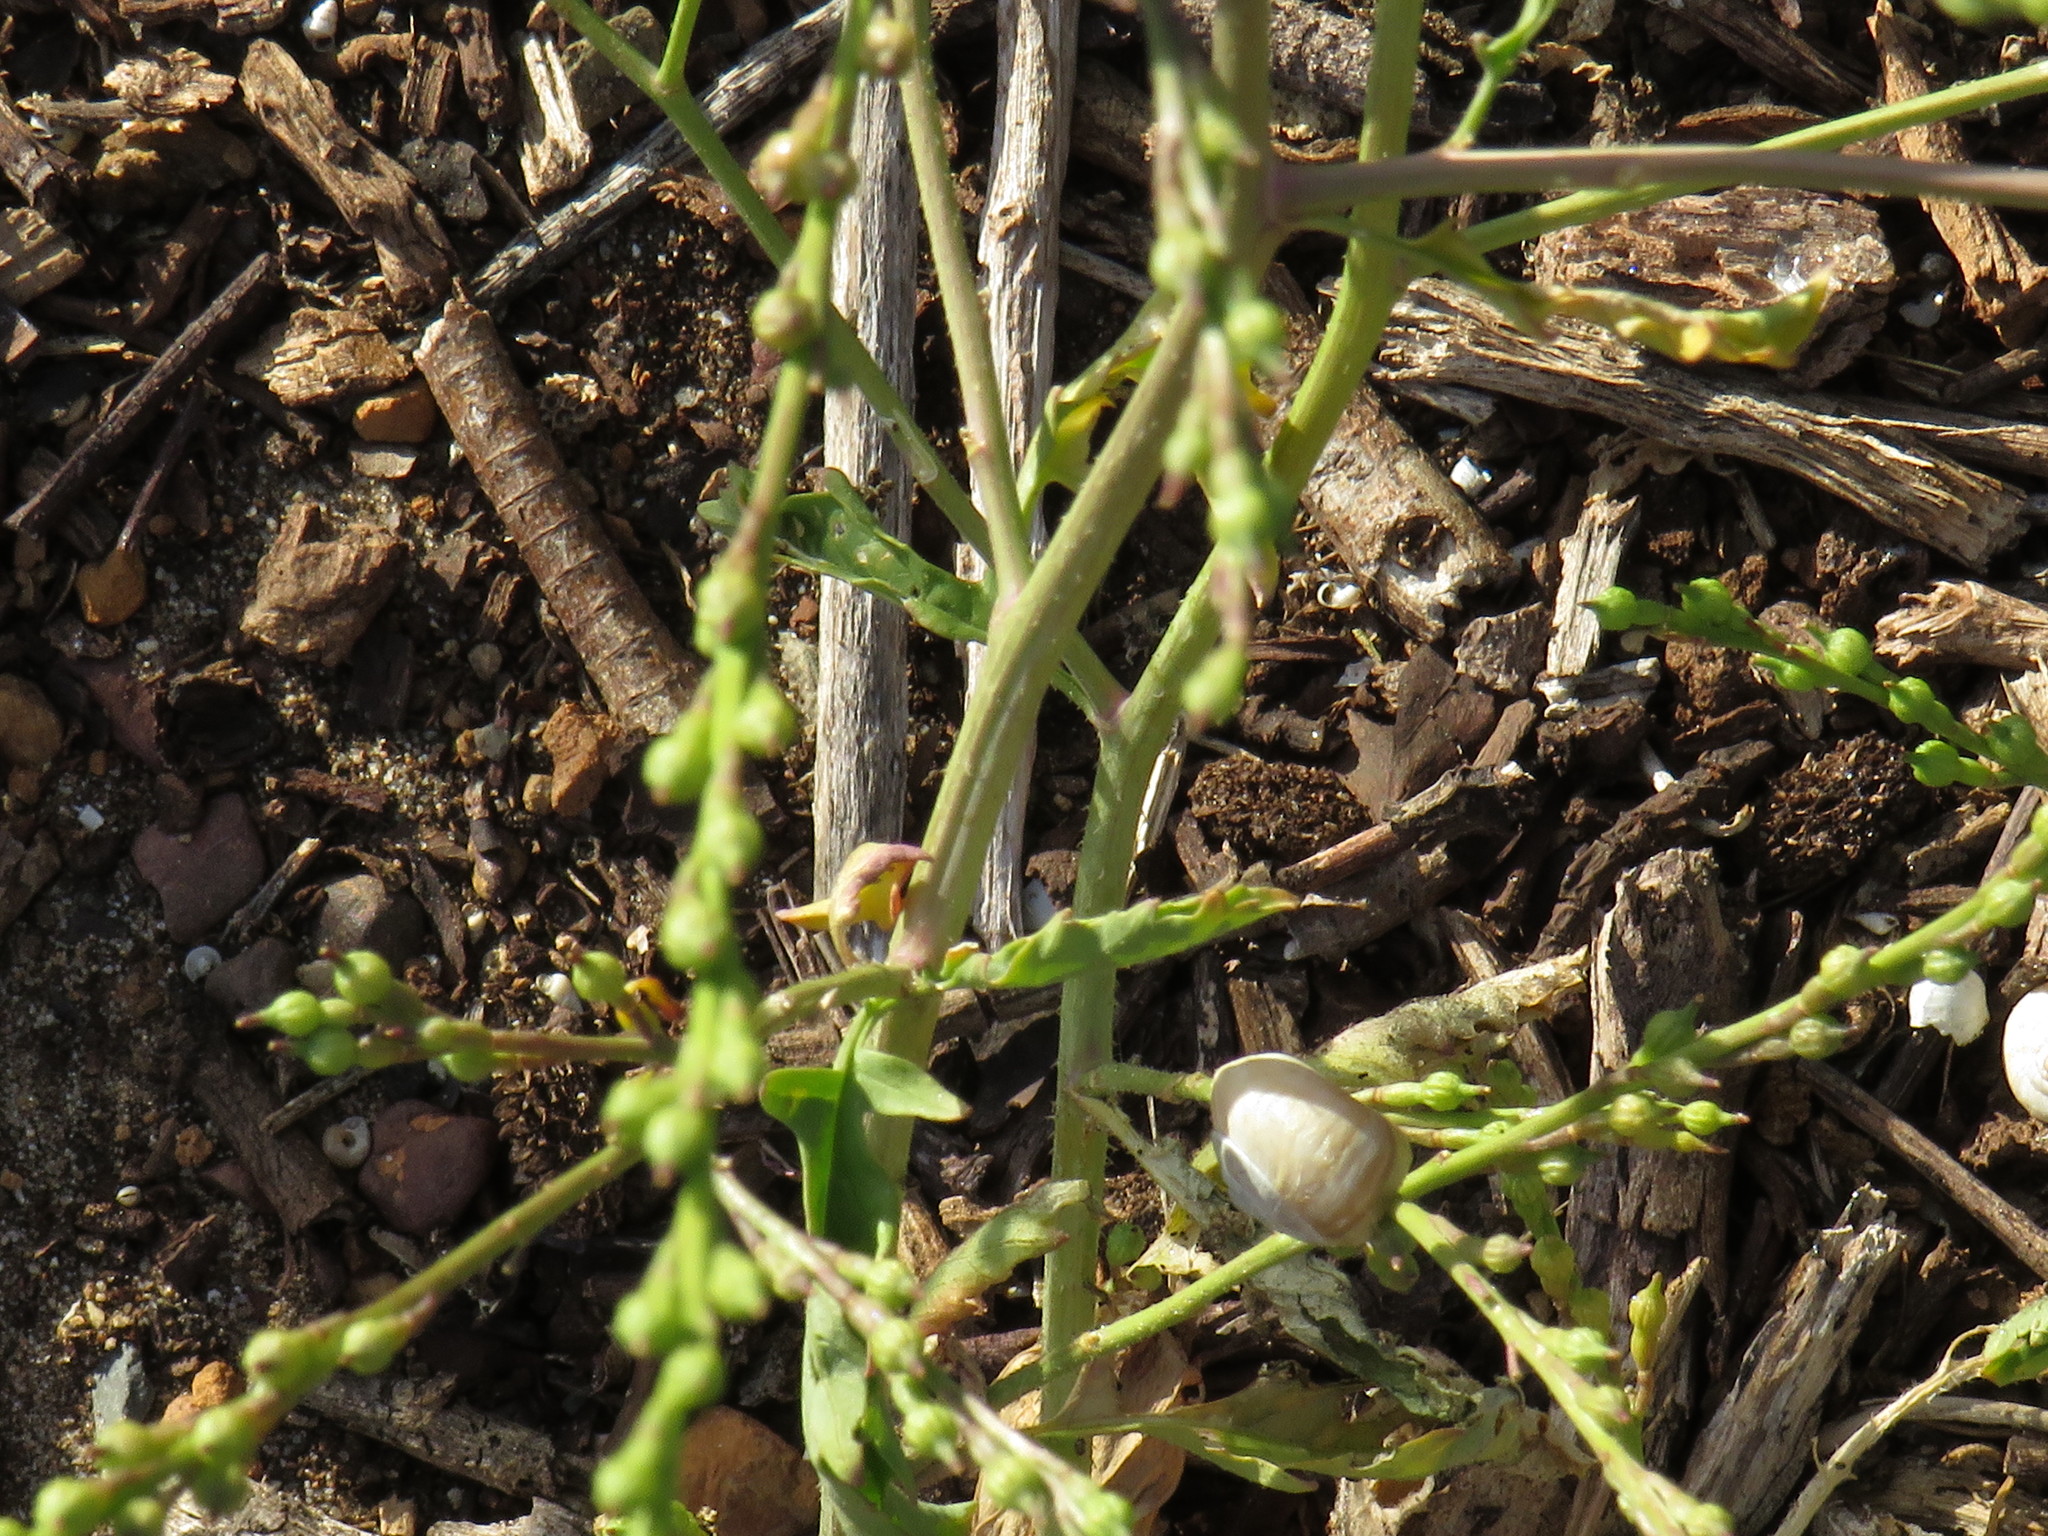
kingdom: Plantae
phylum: Tracheophyta
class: Magnoliopsida
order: Brassicales
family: Brassicaceae
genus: Rapistrum
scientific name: Rapistrum rugosum
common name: Annual bastardcabbage
